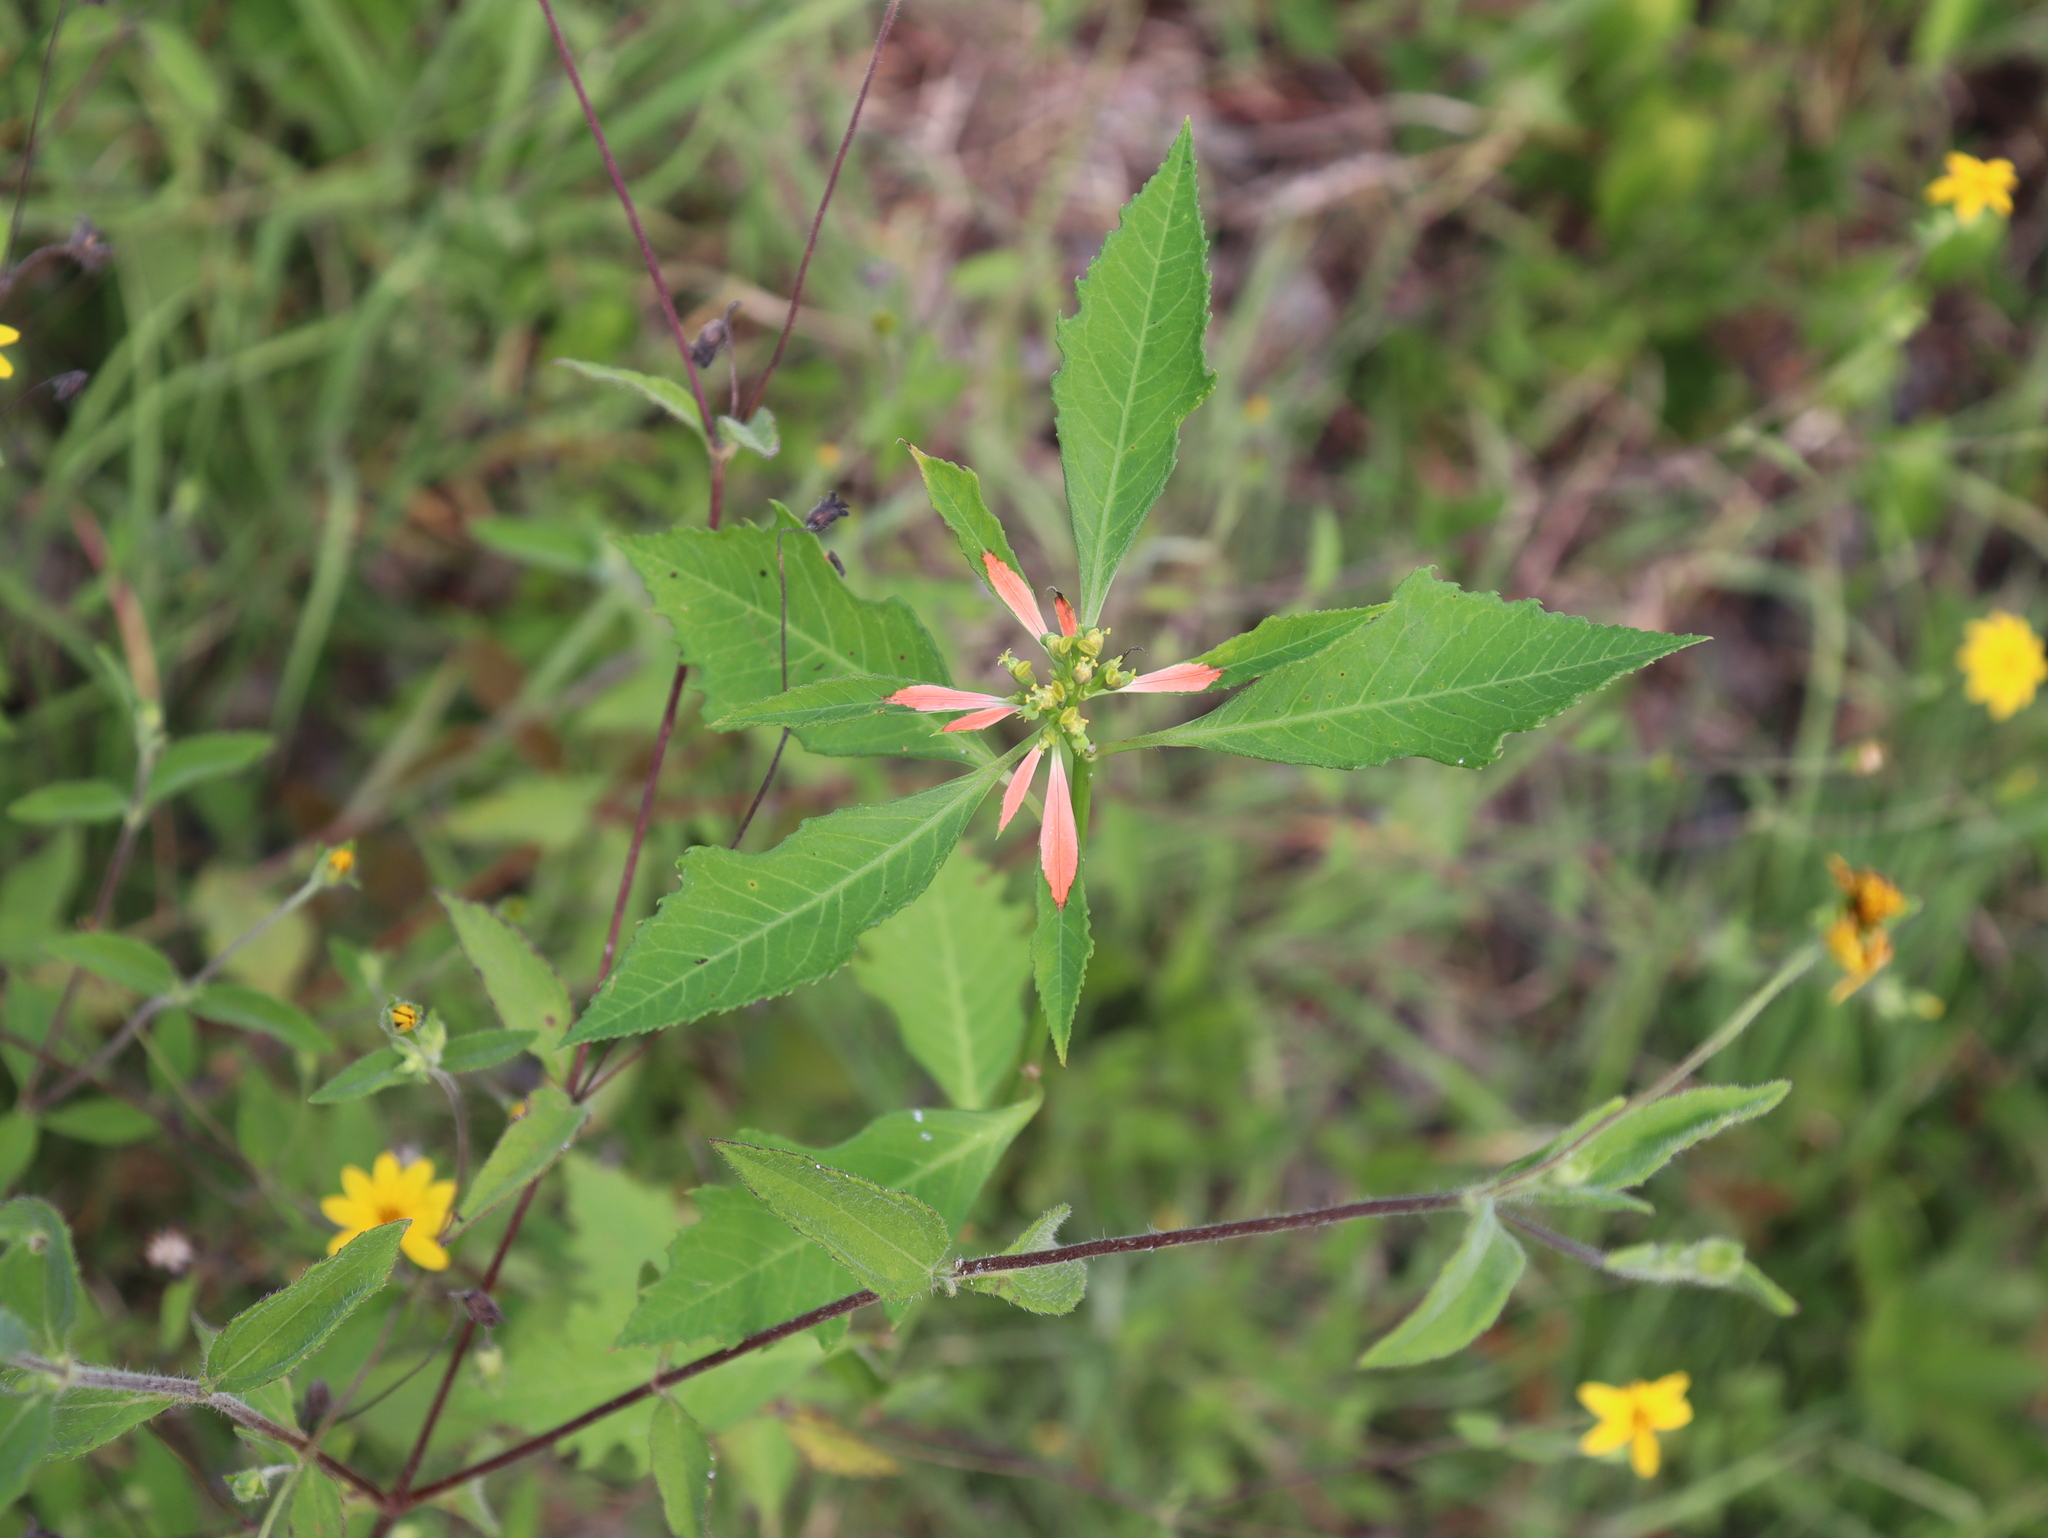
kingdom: Plantae
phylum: Tracheophyta
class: Magnoliopsida
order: Malpighiales
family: Euphorbiaceae
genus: Euphorbia
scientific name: Euphorbia heterophylla
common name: Mexican fireplant
